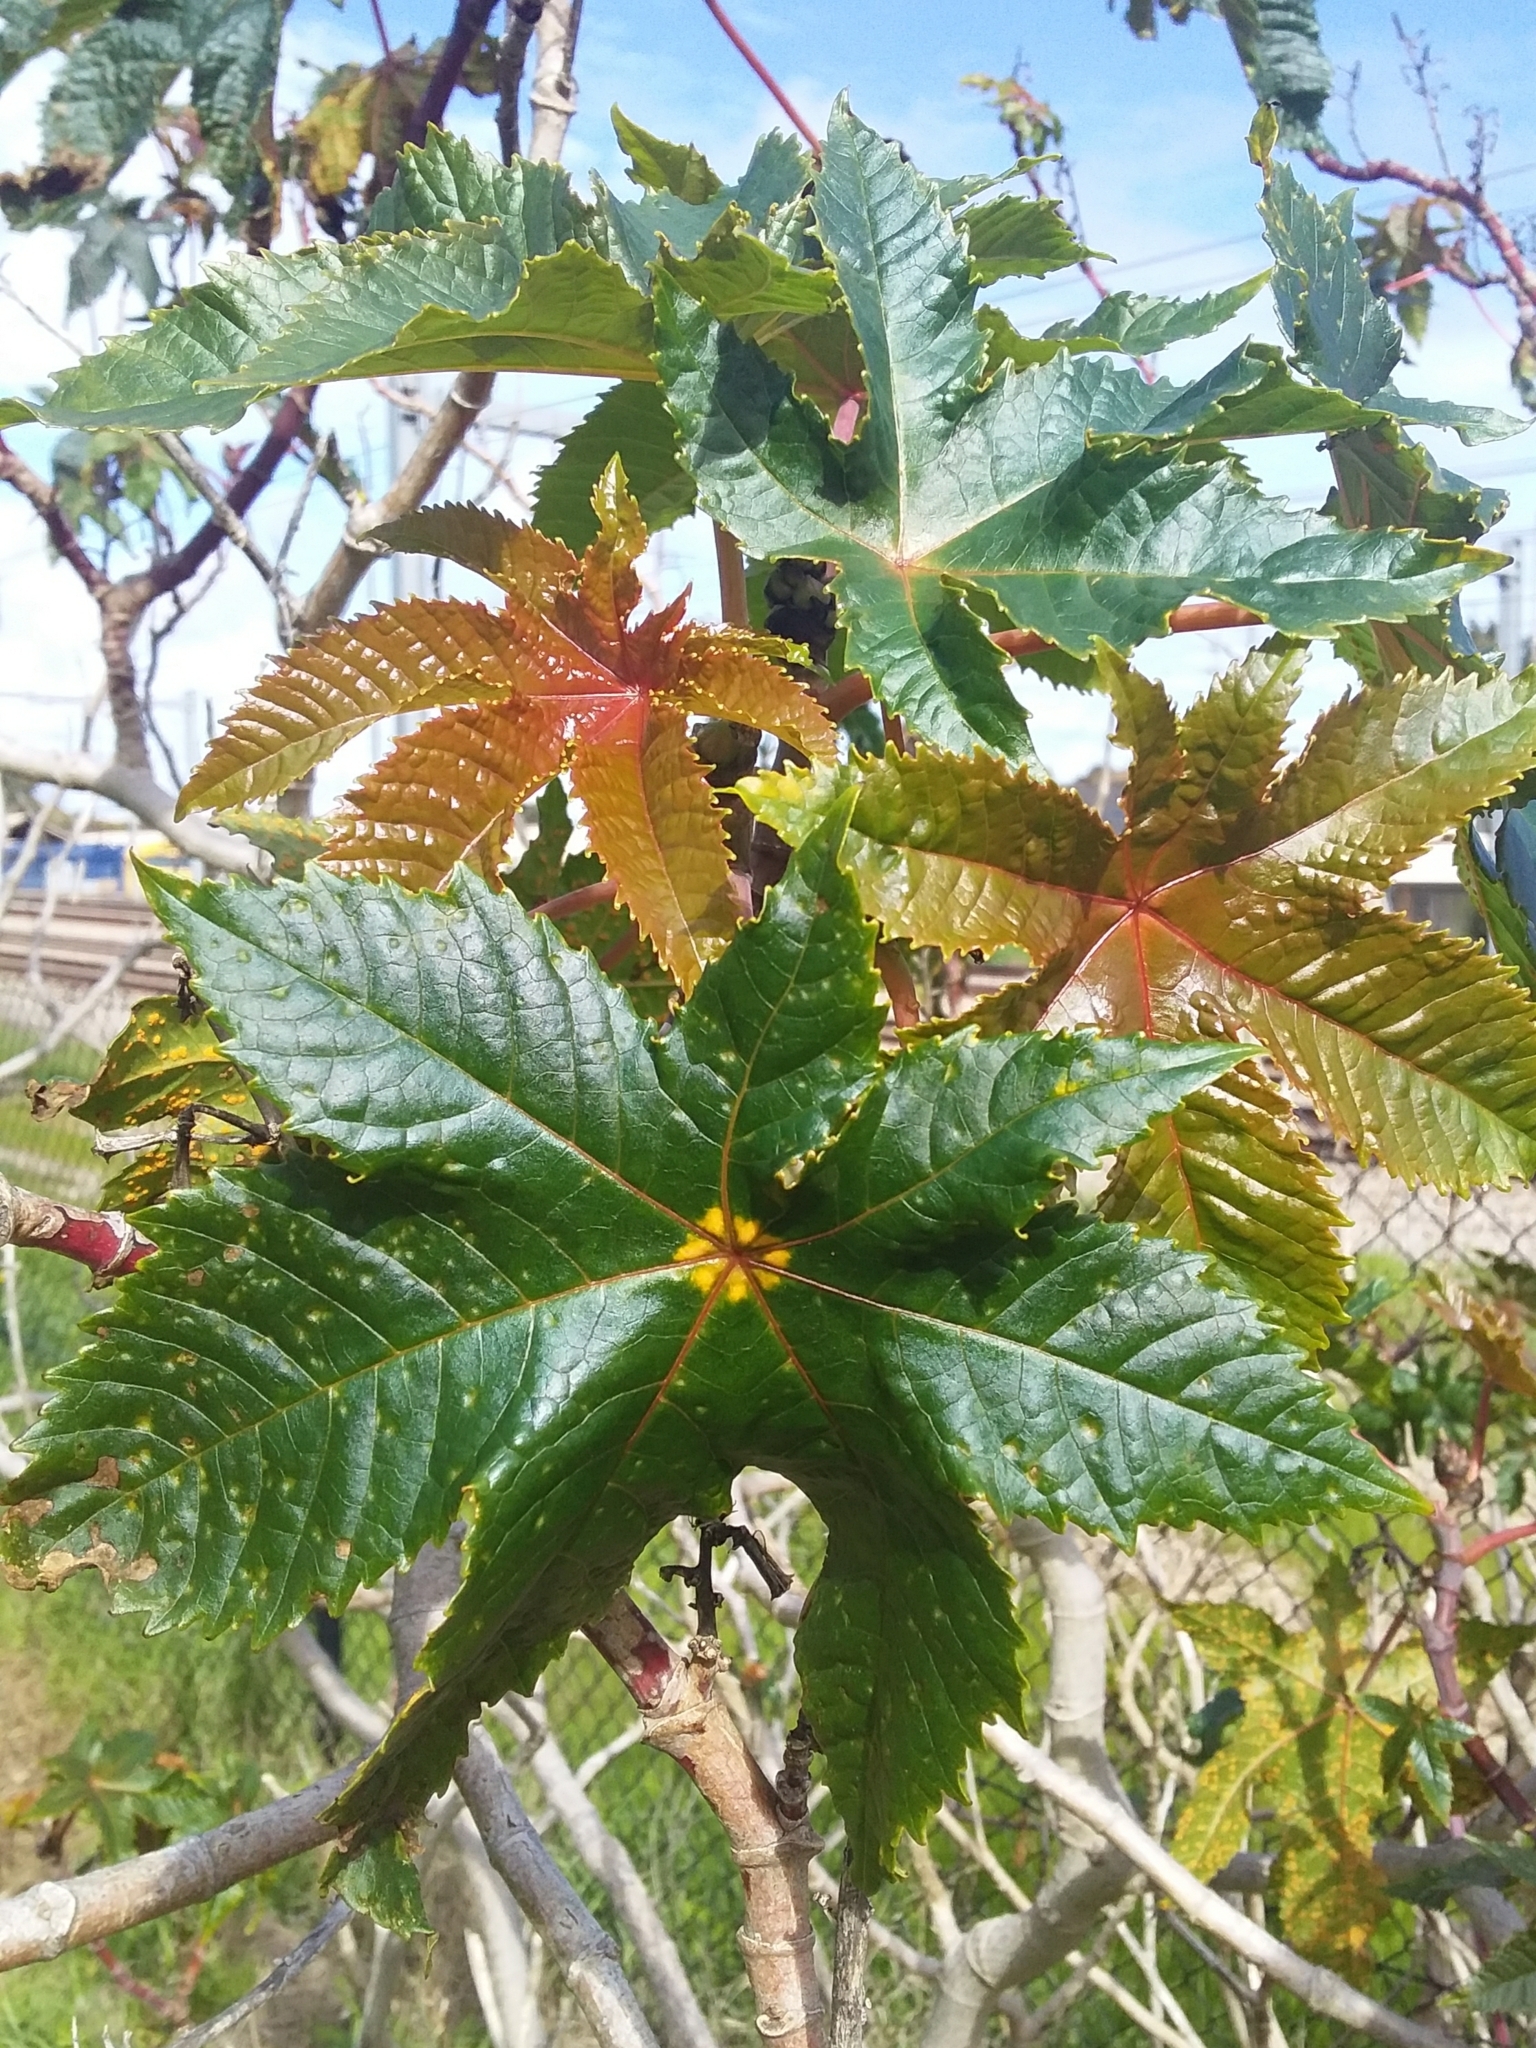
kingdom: Plantae
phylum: Tracheophyta
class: Magnoliopsida
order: Malpighiales
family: Euphorbiaceae
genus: Ricinus
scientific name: Ricinus communis
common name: Castor-oil-plant
